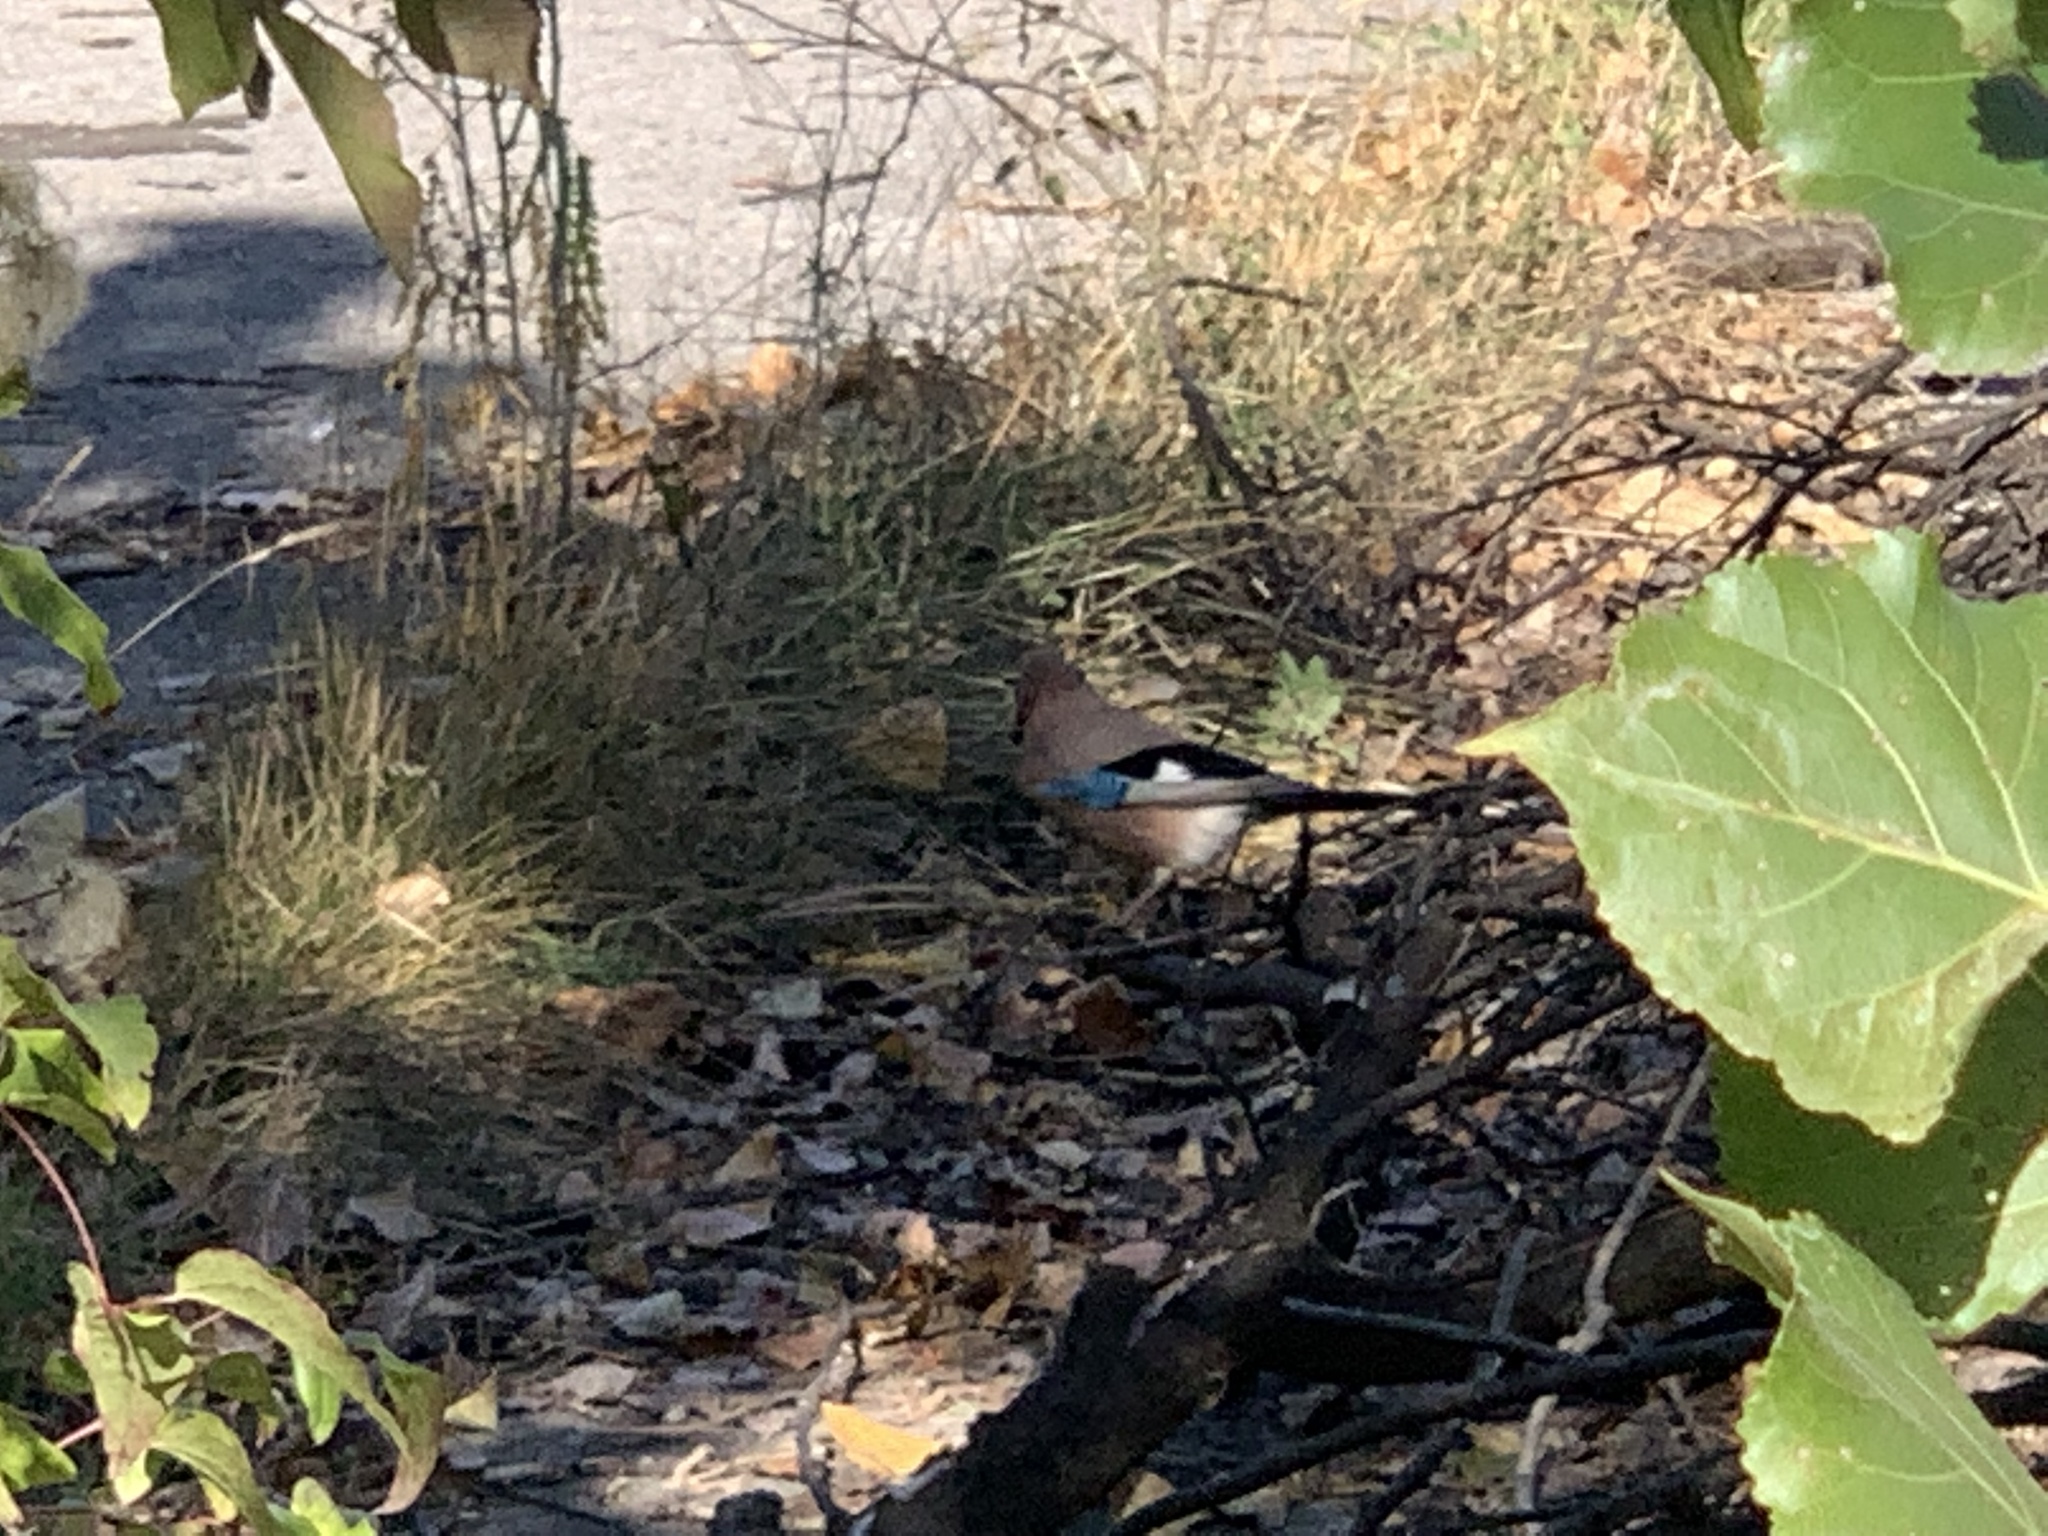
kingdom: Animalia
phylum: Chordata
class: Aves
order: Passeriformes
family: Corvidae
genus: Garrulus
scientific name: Garrulus glandarius
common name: Eurasian jay
